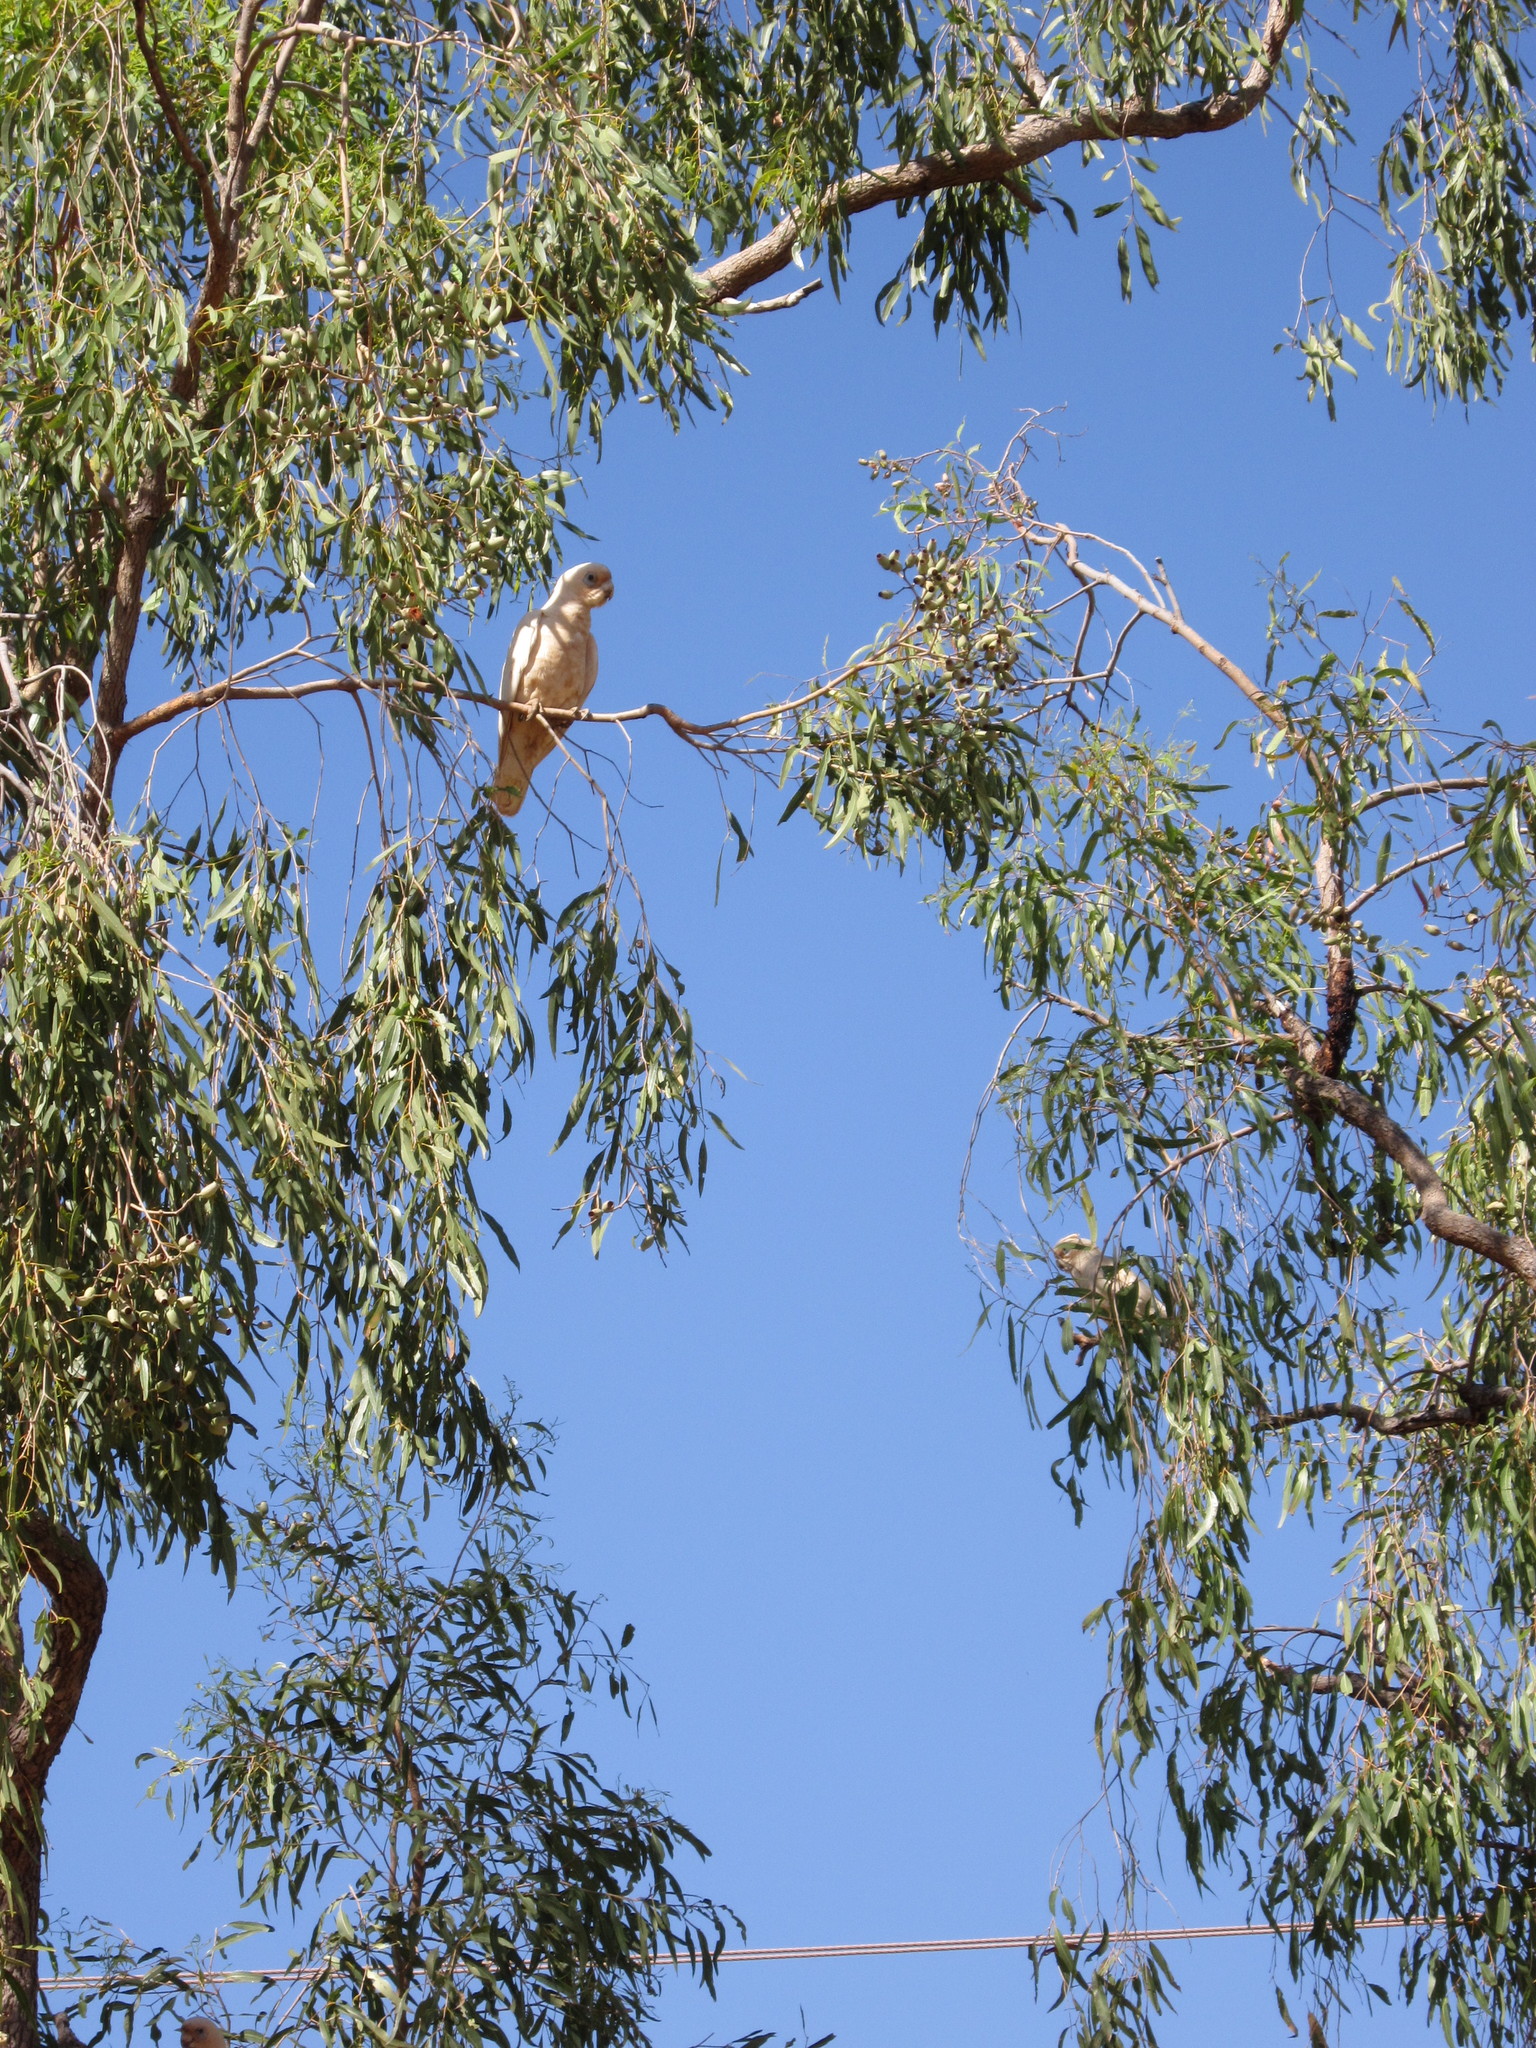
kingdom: Animalia
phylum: Chordata
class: Aves
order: Psittaciformes
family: Psittacidae
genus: Cacatua
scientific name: Cacatua sanguinea
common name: Little corella
